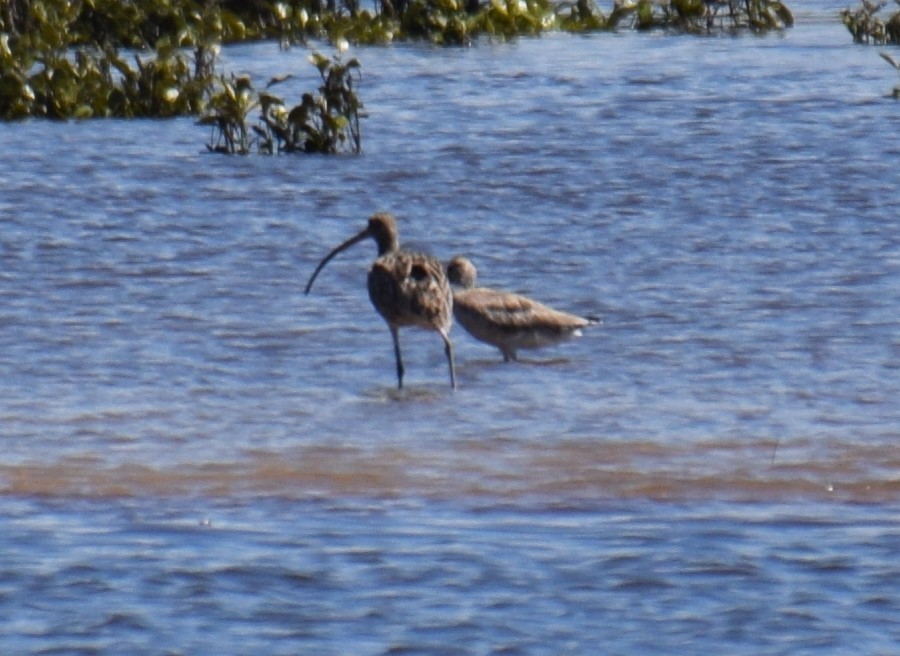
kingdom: Animalia
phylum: Chordata
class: Aves
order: Charadriiformes
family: Scolopacidae
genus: Numenius
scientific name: Numenius madagascariensis
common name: Far eastern curlew
